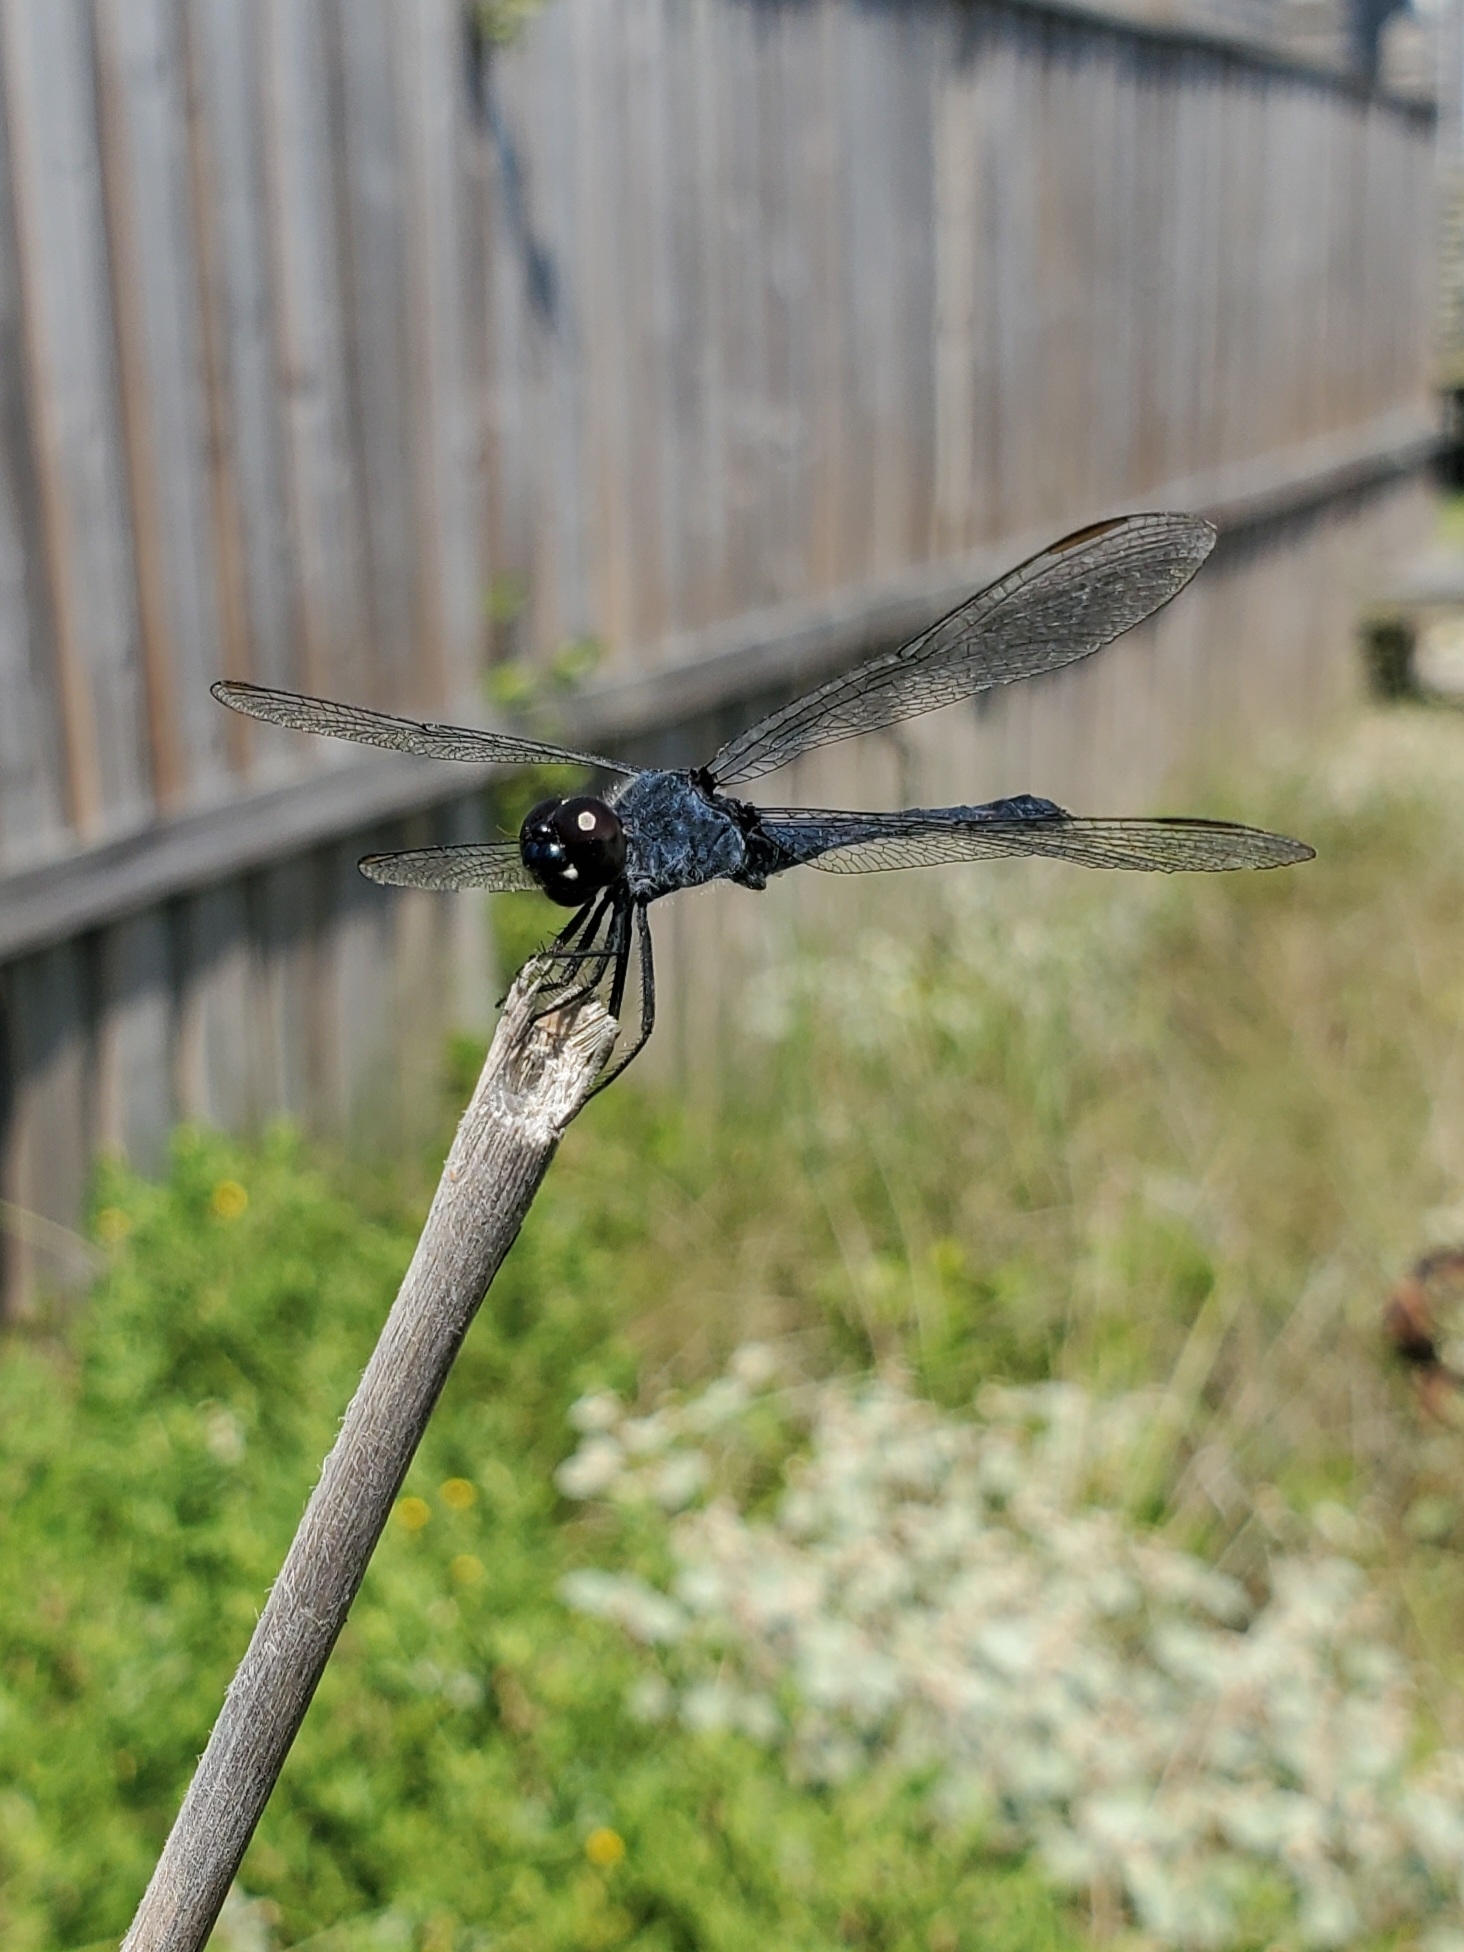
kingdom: Animalia
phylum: Arthropoda
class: Insecta
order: Odonata
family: Libellulidae
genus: Erythrodiplax
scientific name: Erythrodiplax berenice
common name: Seaside dragonlet
